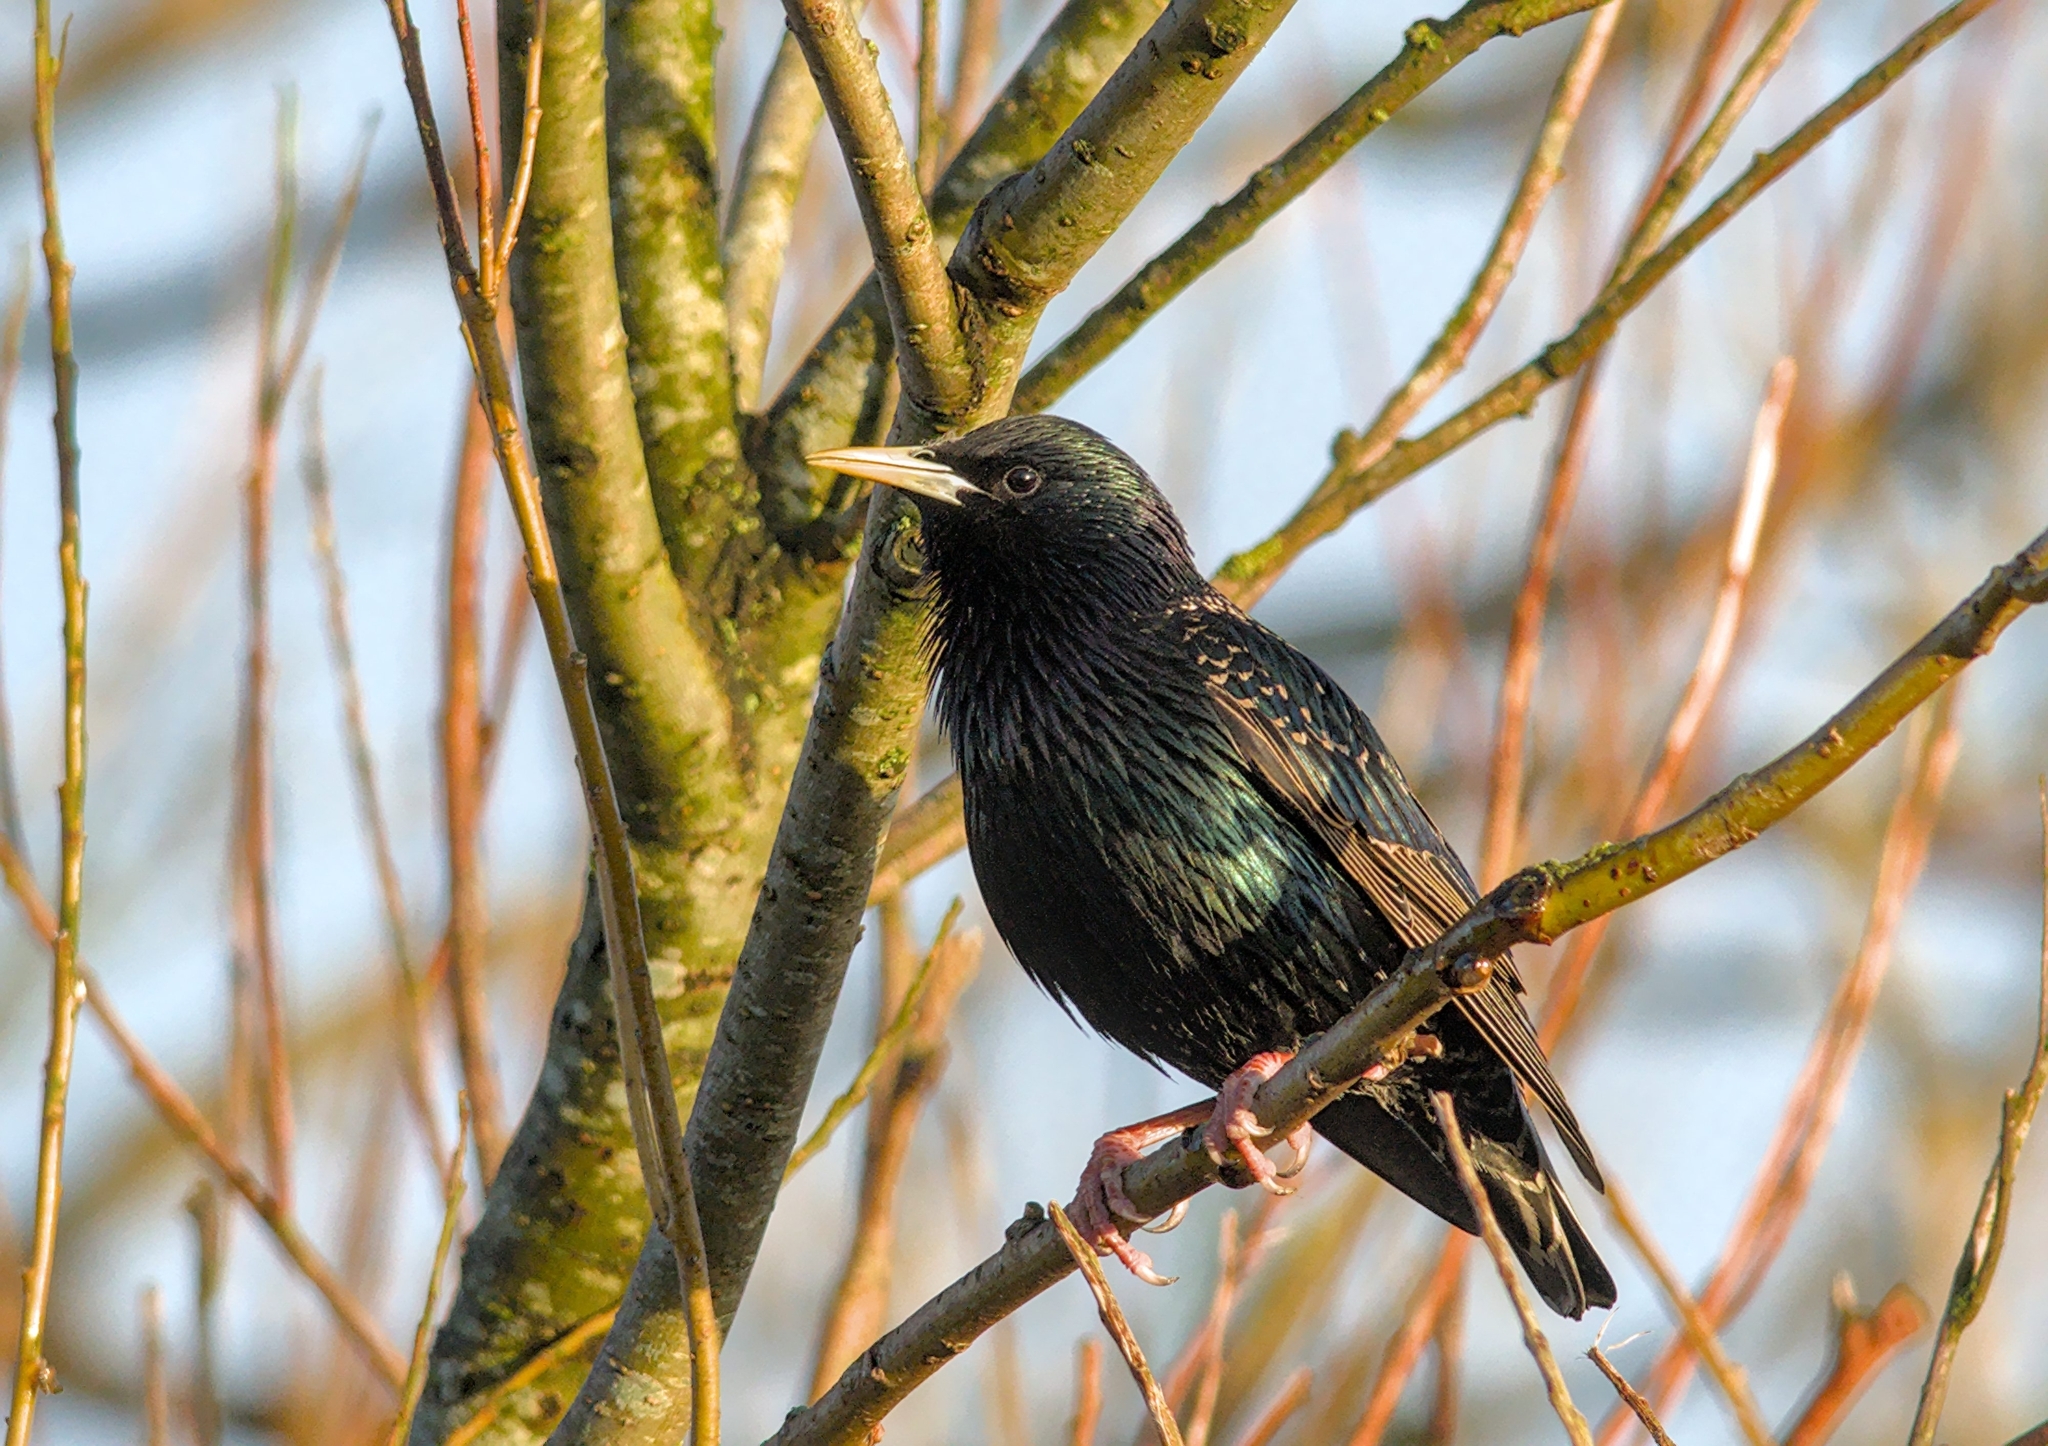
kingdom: Animalia
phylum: Chordata
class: Aves
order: Passeriformes
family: Sturnidae
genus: Sturnus
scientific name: Sturnus vulgaris
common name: Common starling
